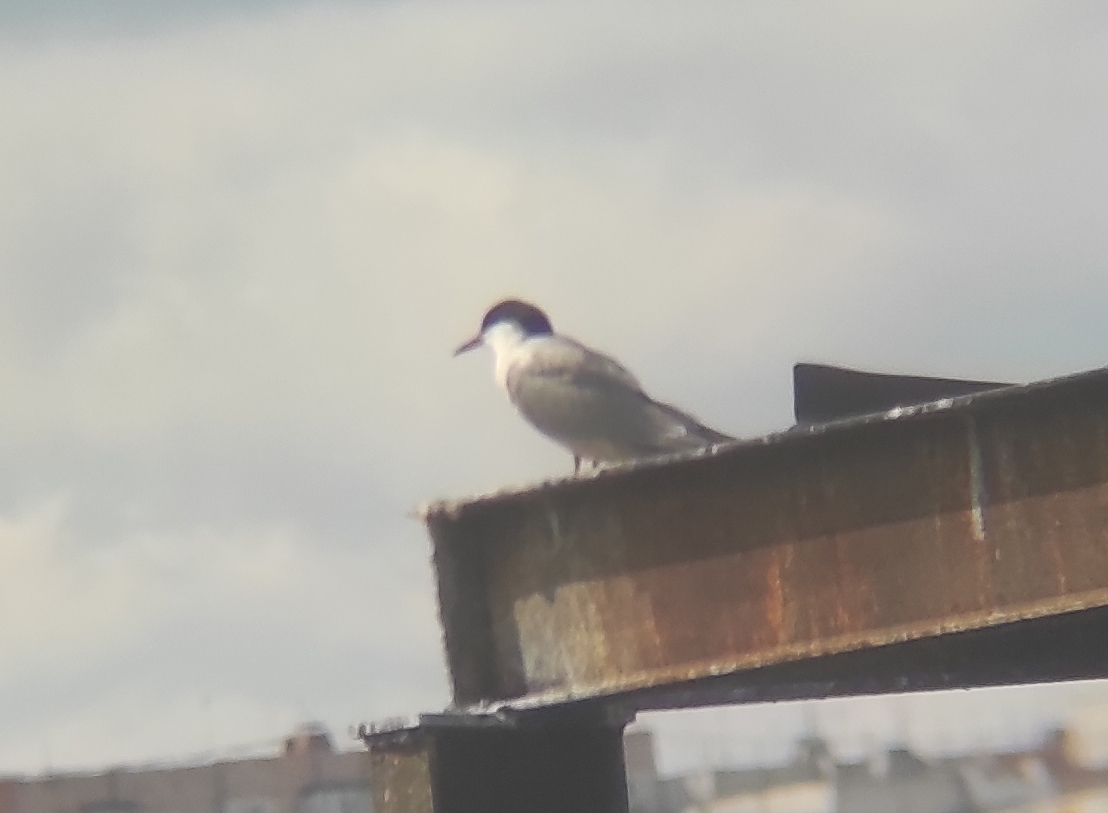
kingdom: Animalia
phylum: Chordata
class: Aves
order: Charadriiformes
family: Laridae
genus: Sterna
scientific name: Sterna hirundo
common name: Common tern
